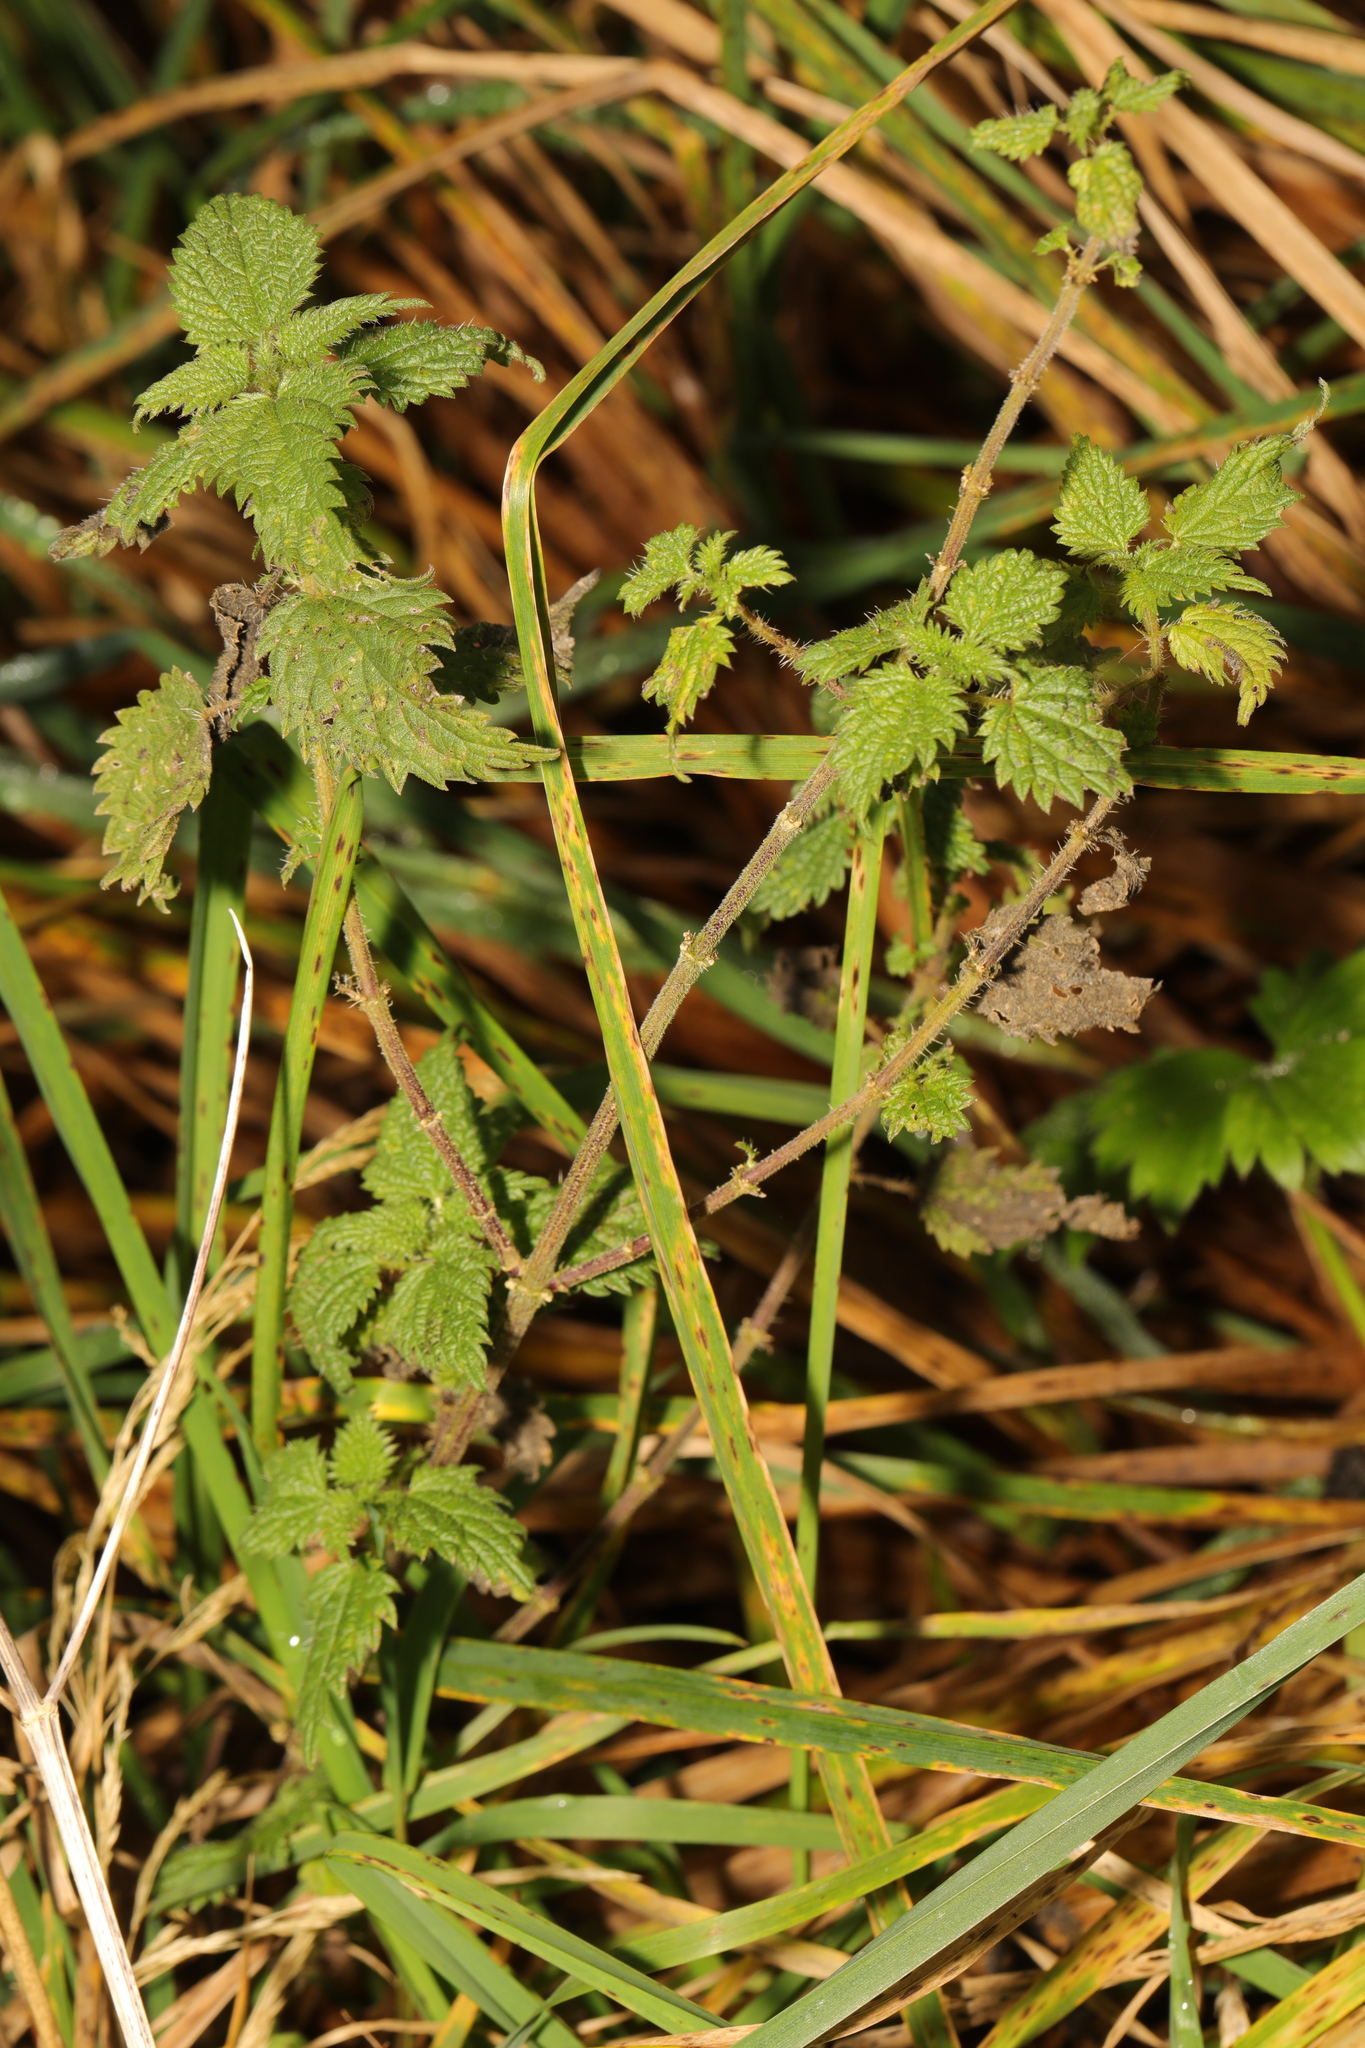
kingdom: Plantae
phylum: Tracheophyta
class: Magnoliopsida
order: Rosales
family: Urticaceae
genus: Urtica
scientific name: Urtica dioica
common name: Common nettle
